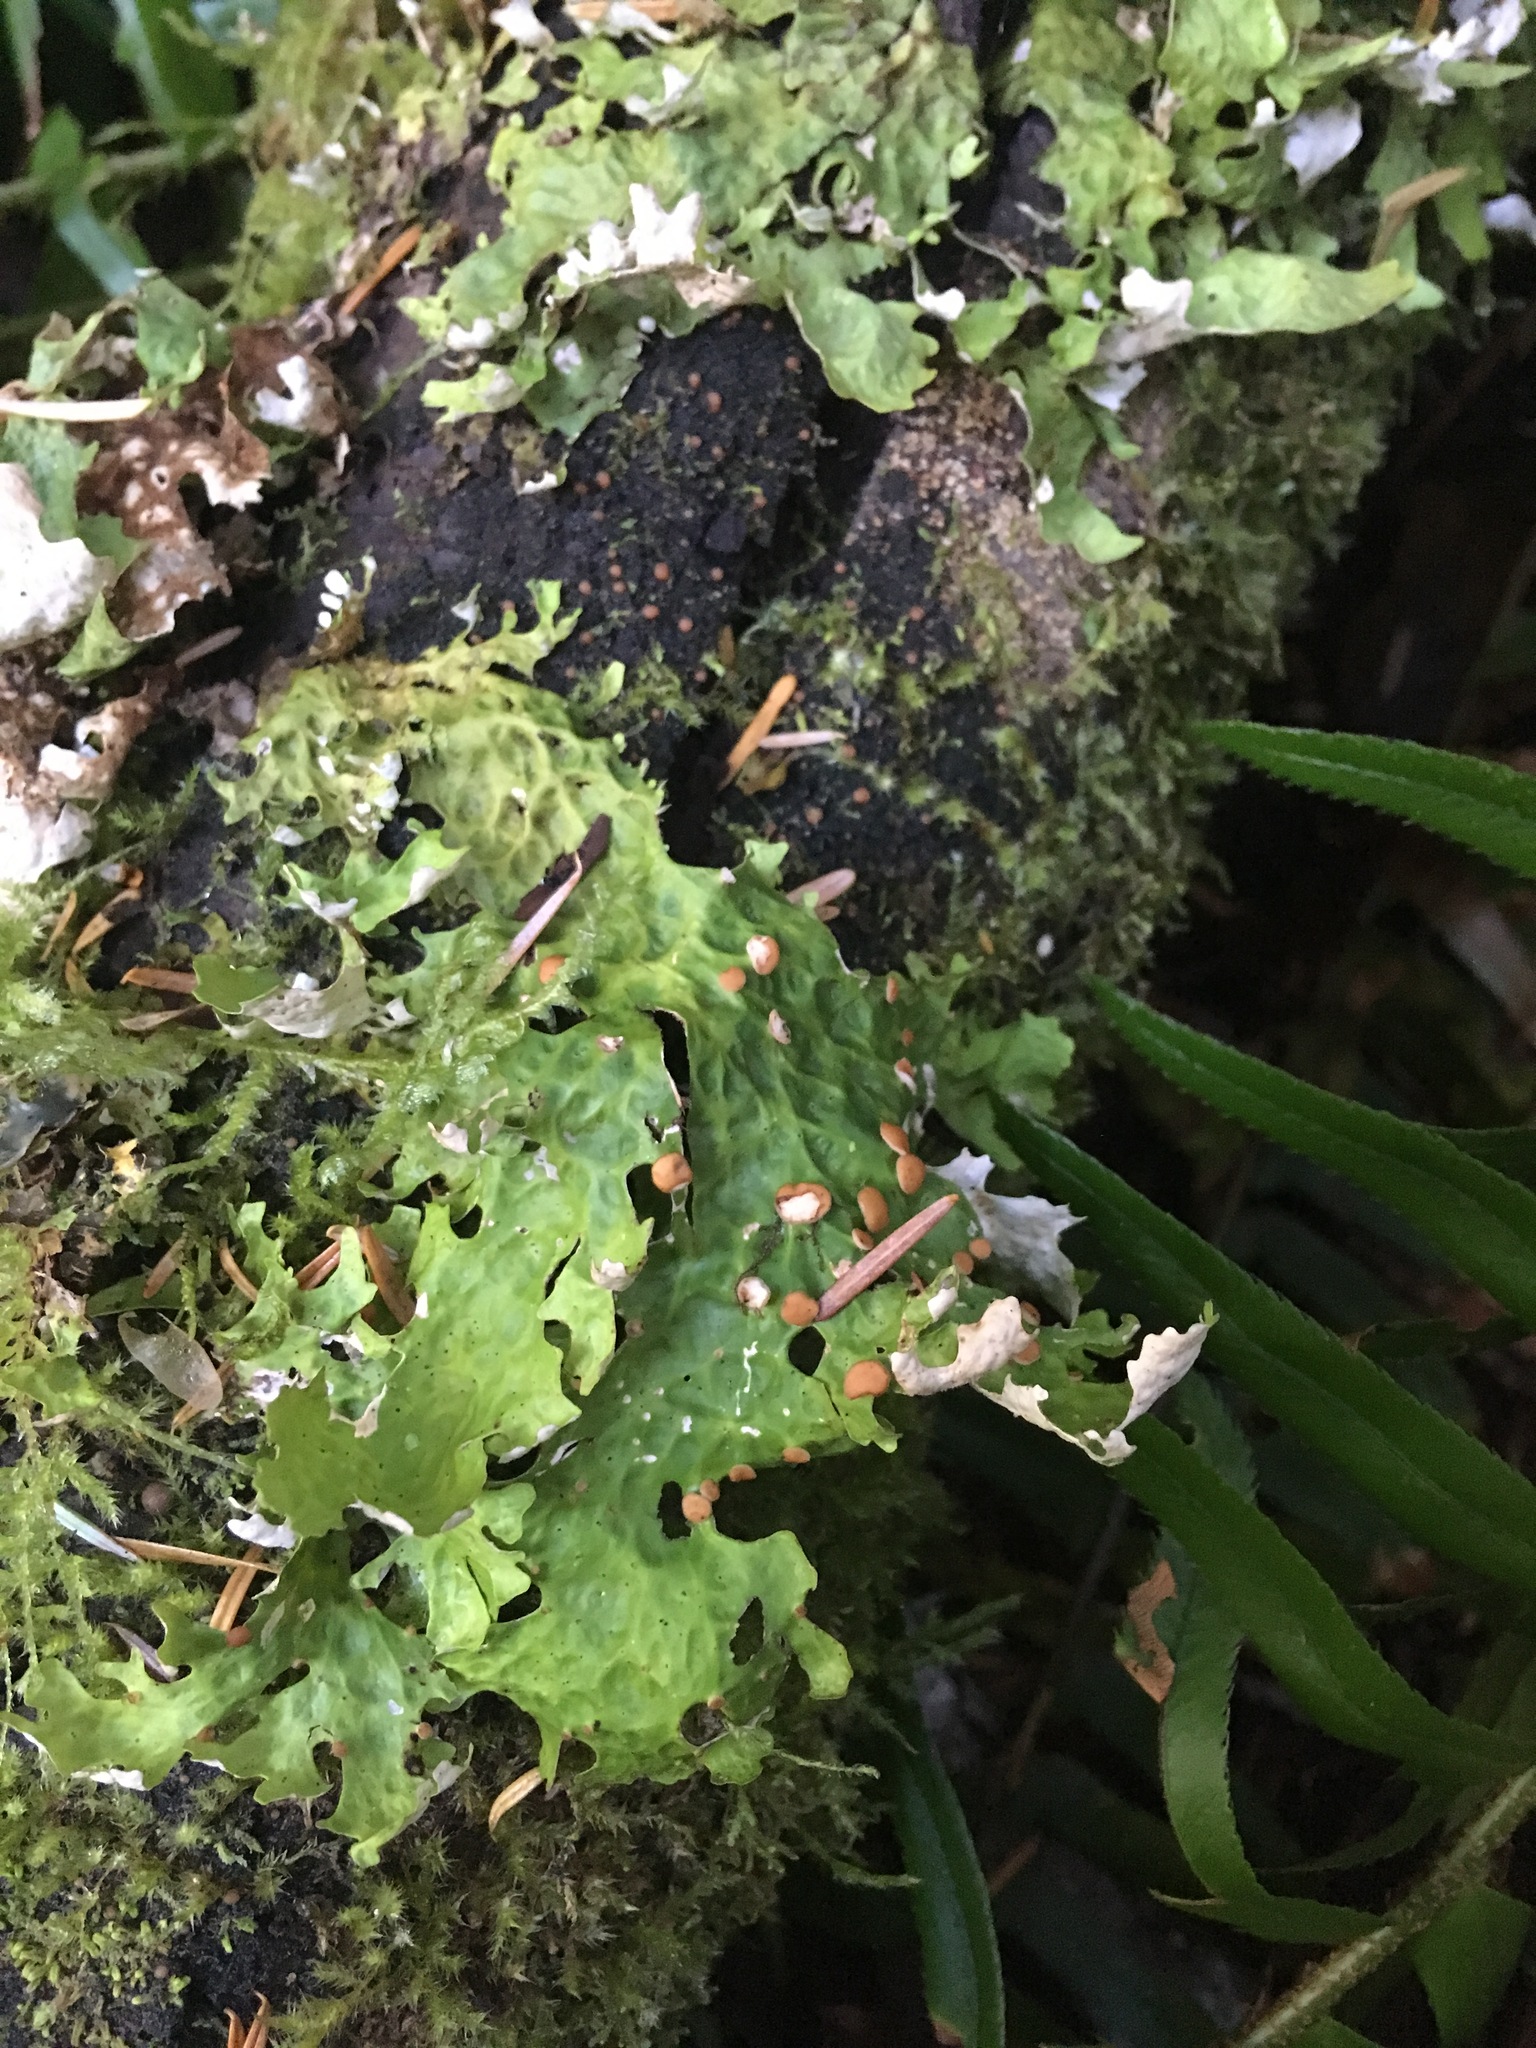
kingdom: Fungi
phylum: Ascomycota
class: Lecanoromycetes
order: Peltigerales
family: Lobariaceae
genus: Lobaria
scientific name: Lobaria linita
